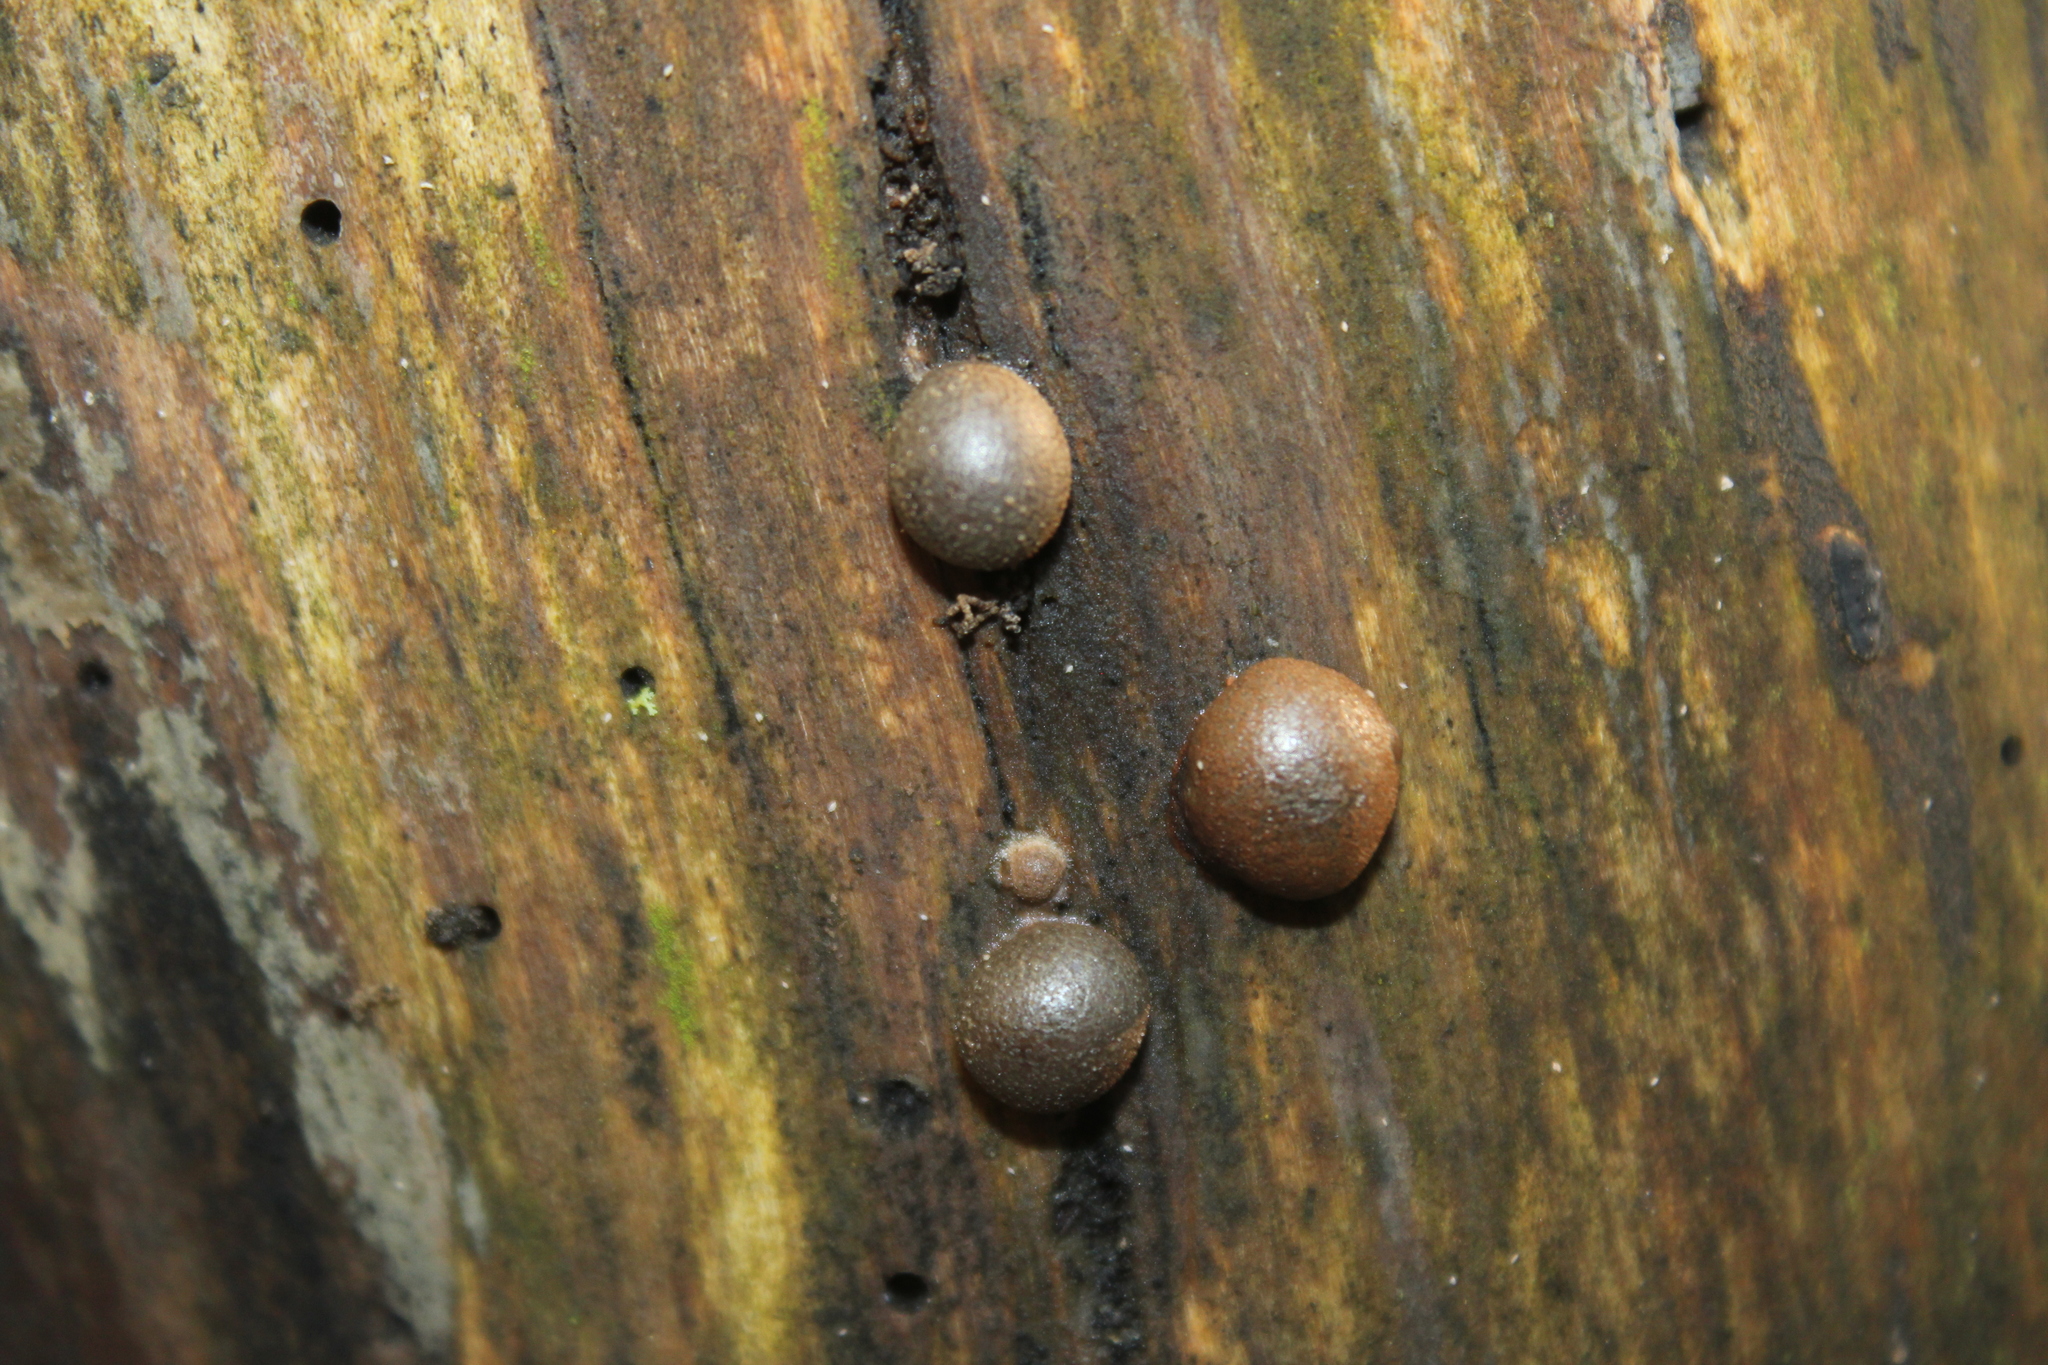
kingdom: Protozoa
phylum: Mycetozoa
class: Myxomycetes
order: Cribrariales
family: Tubiferaceae
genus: Lycogala
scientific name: Lycogala epidendrum
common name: Wolf's milk
